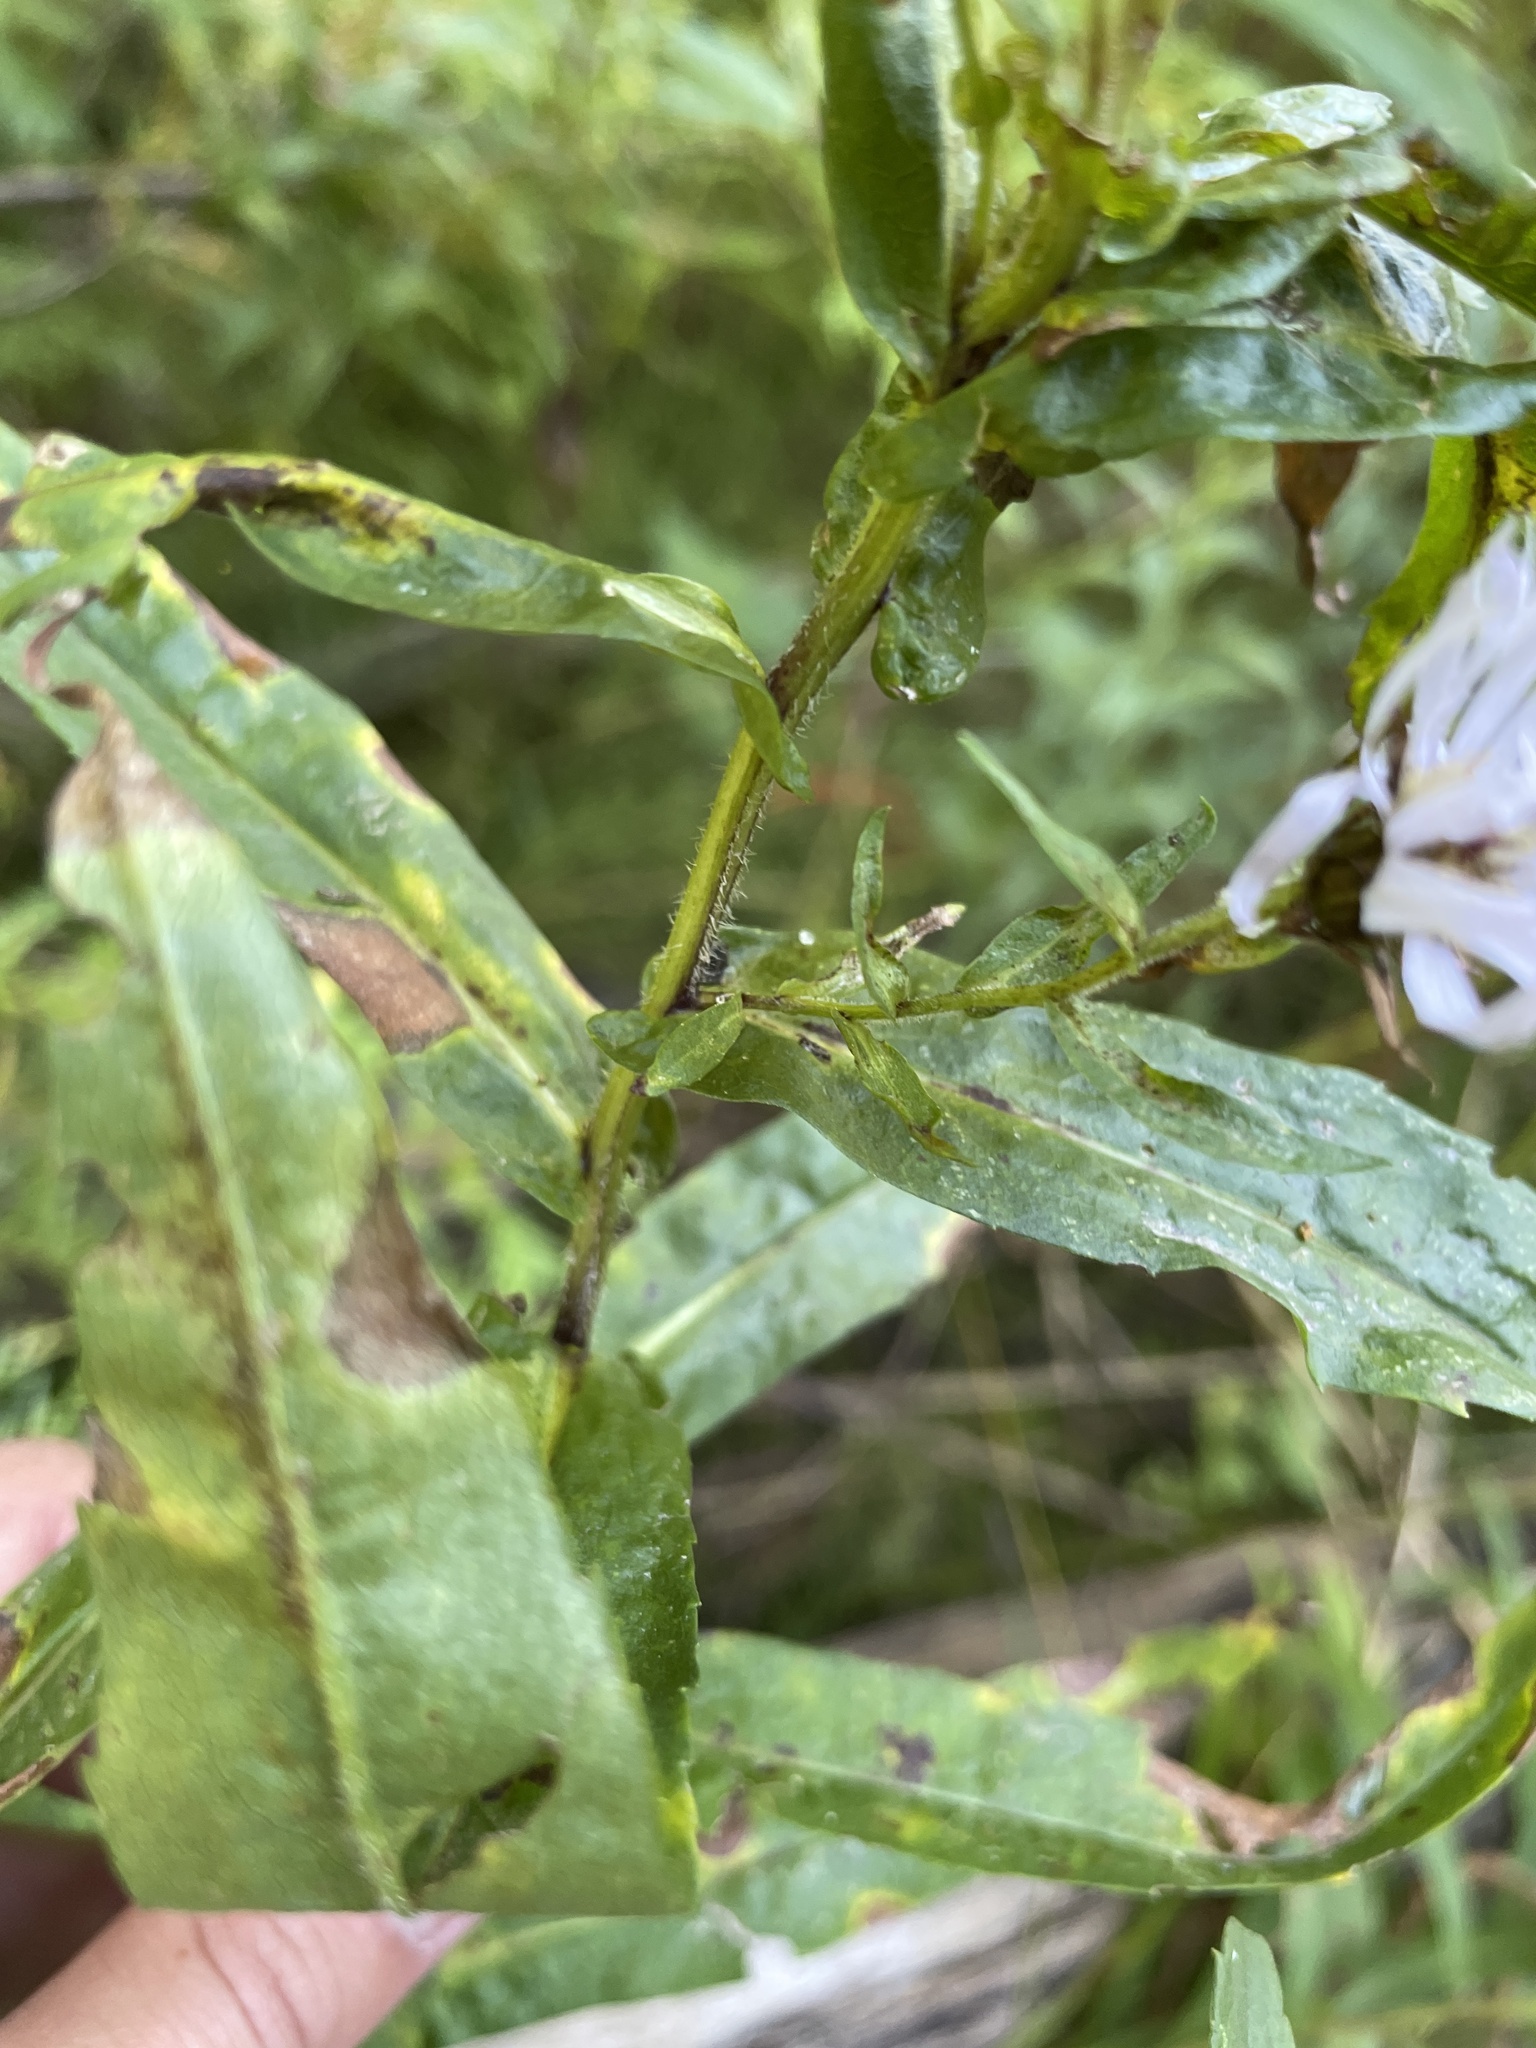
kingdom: Plantae
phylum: Tracheophyta
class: Magnoliopsida
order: Asterales
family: Asteraceae
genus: Symphyotrichum
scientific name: Symphyotrichum firmum
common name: Shining aster
